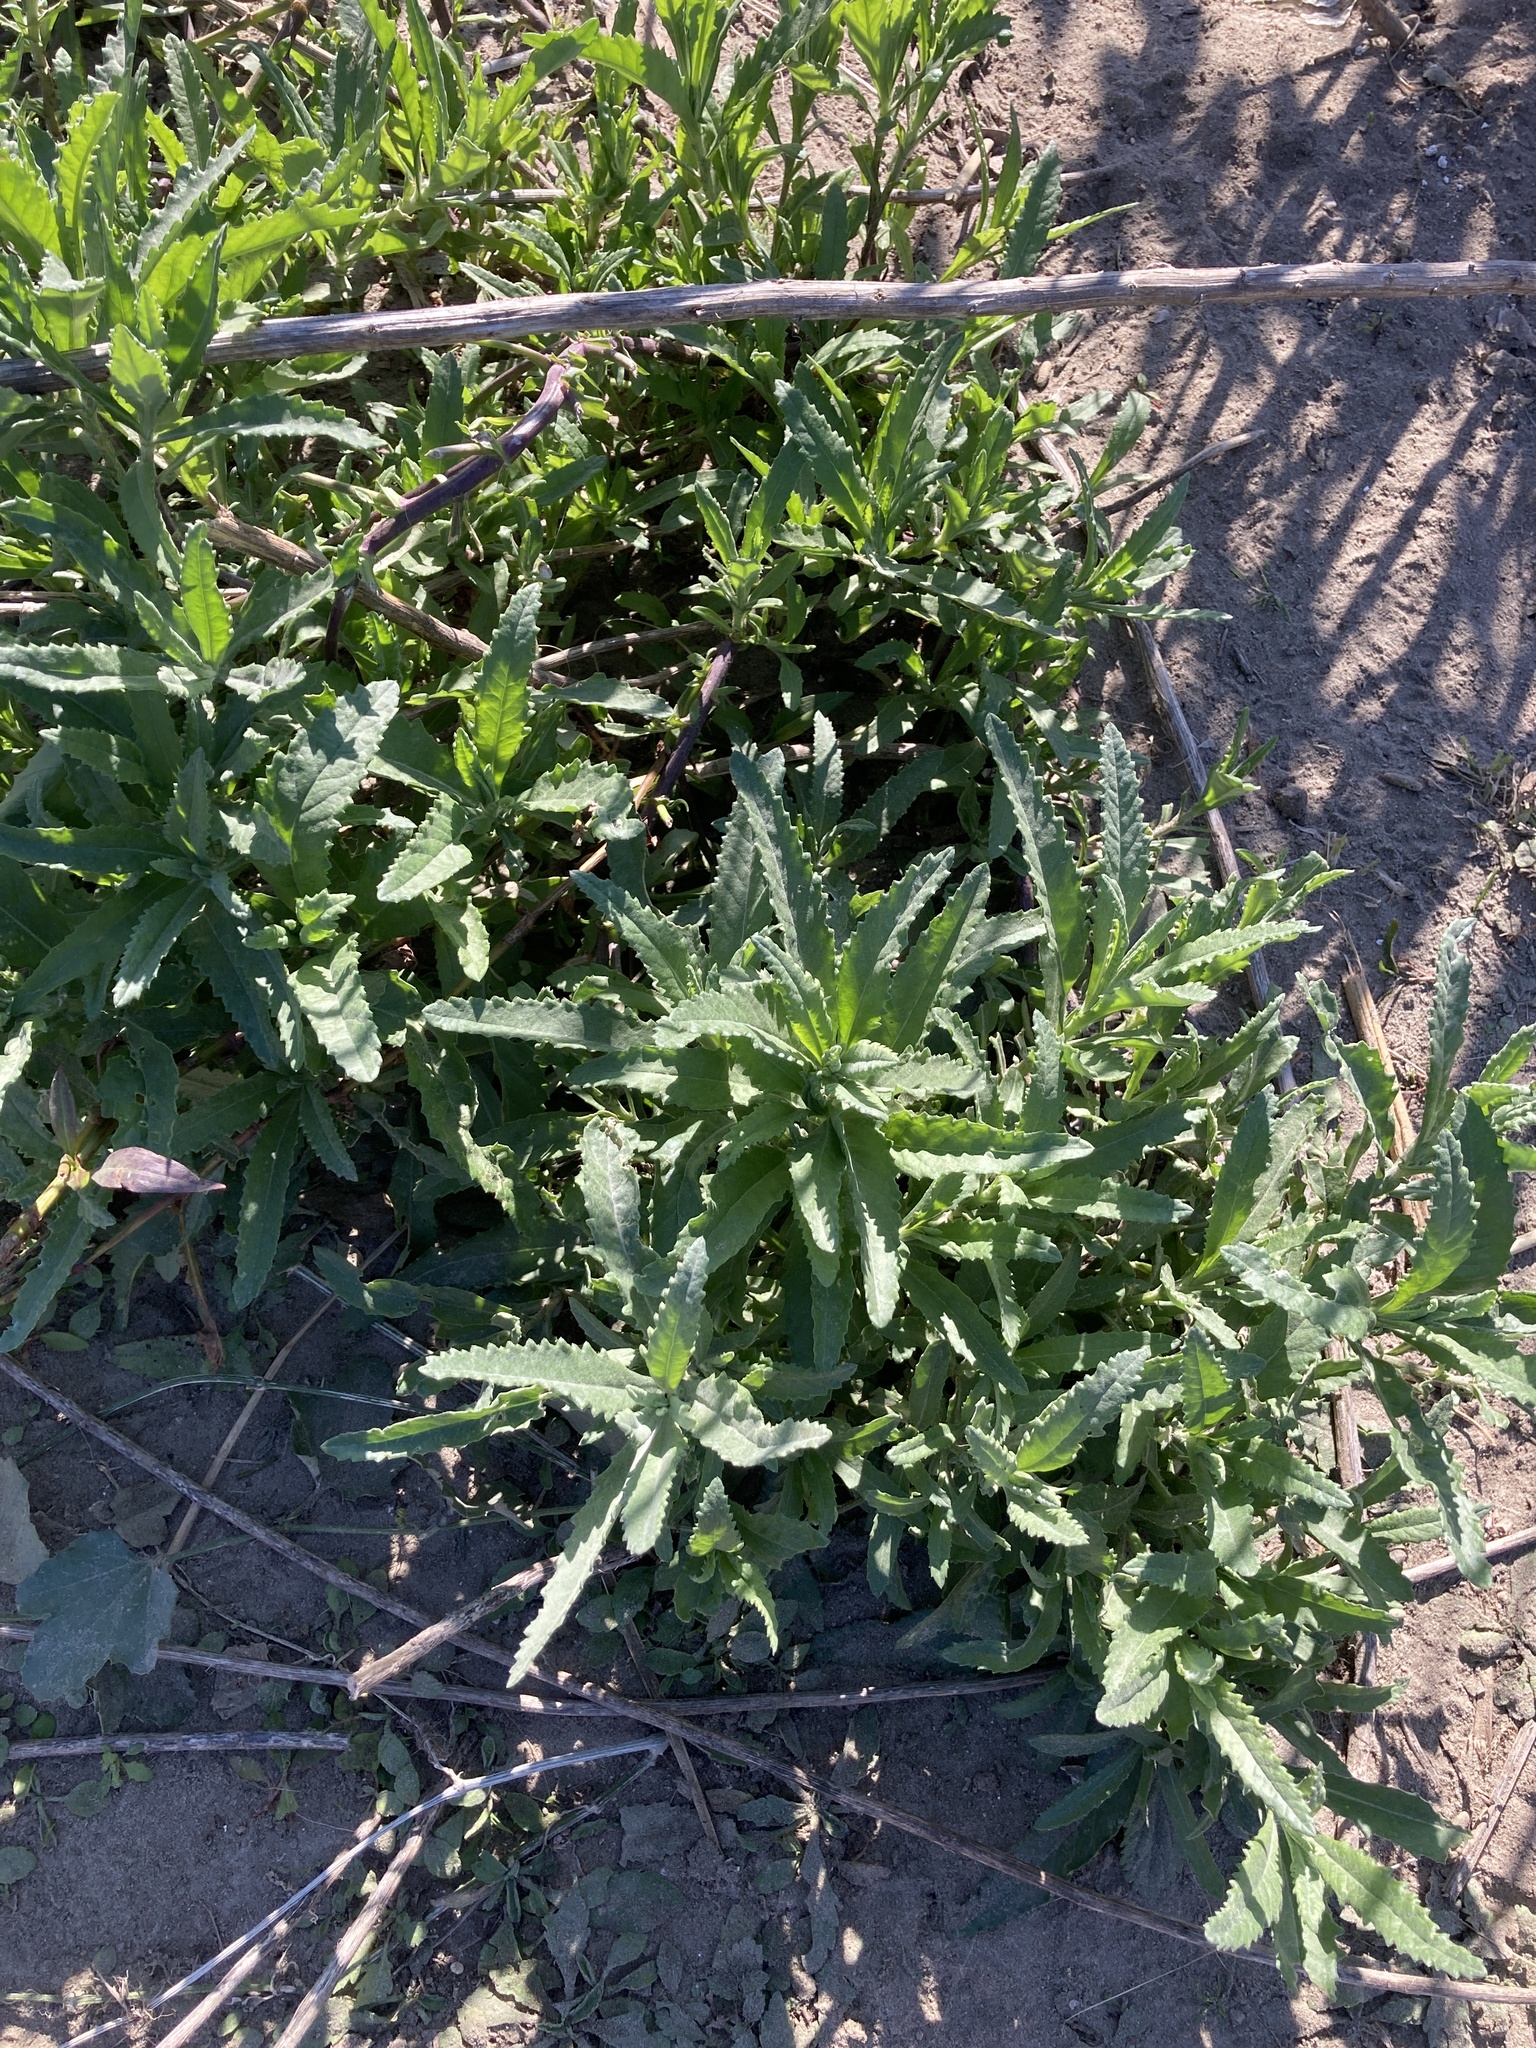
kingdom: Plantae
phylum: Tracheophyta
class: Magnoliopsida
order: Asterales
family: Asteraceae
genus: Senecio
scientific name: Senecio pterophorus
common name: Shoddy ragwort
